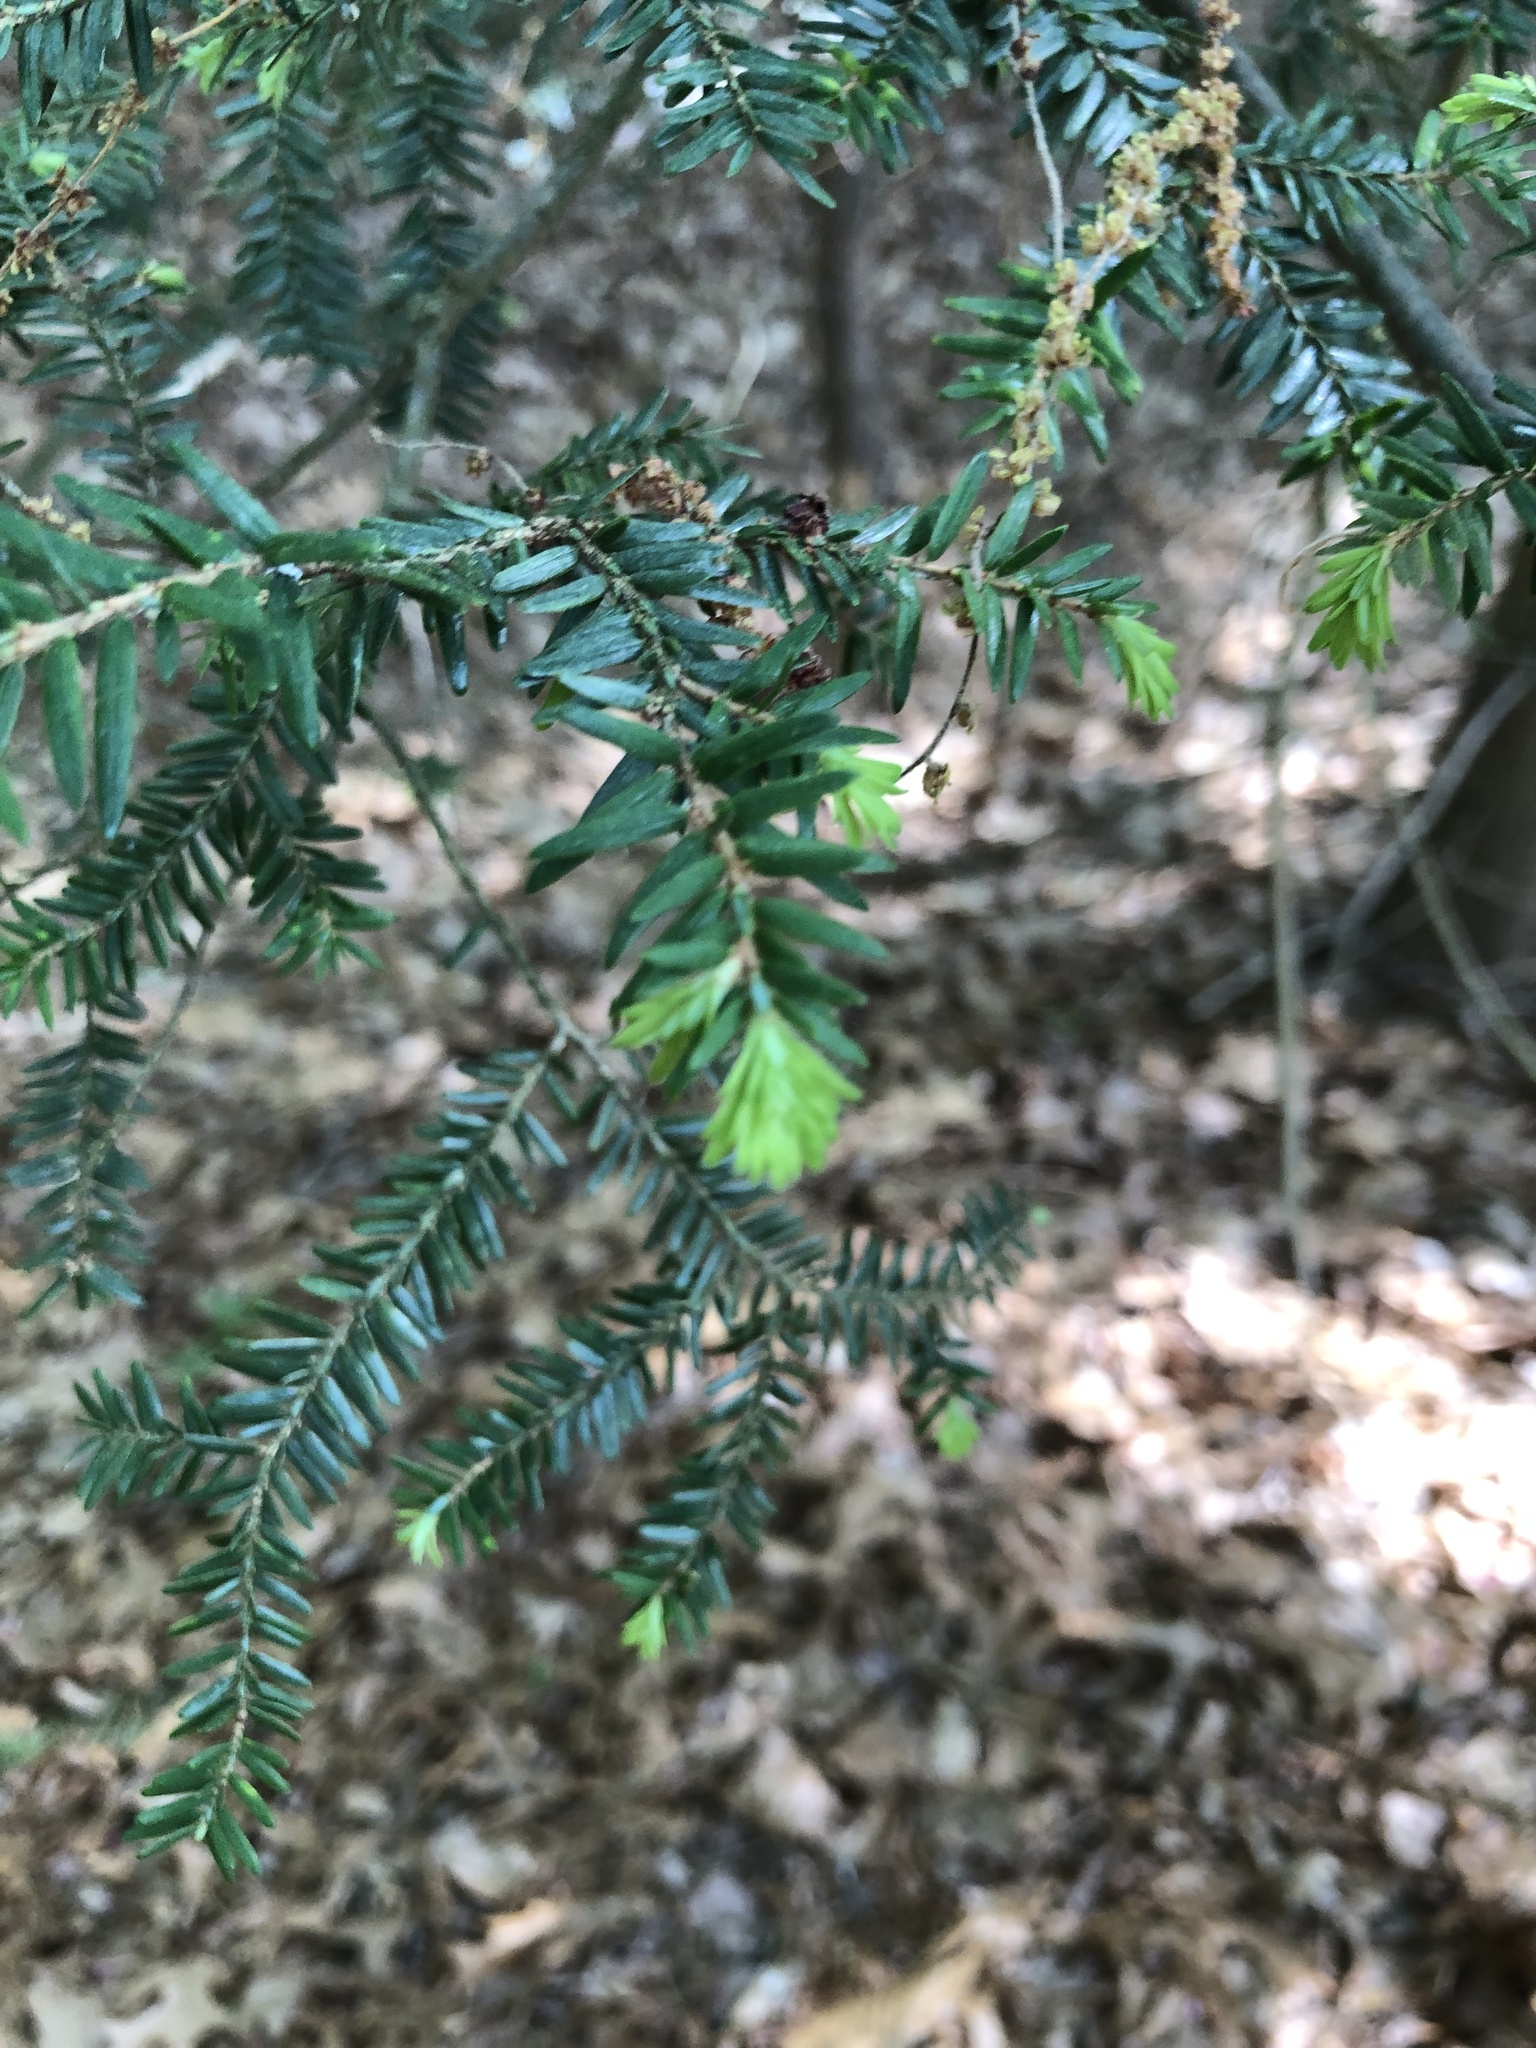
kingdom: Plantae
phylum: Tracheophyta
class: Pinopsida
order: Pinales
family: Pinaceae
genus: Tsuga
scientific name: Tsuga canadensis
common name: Eastern hemlock
